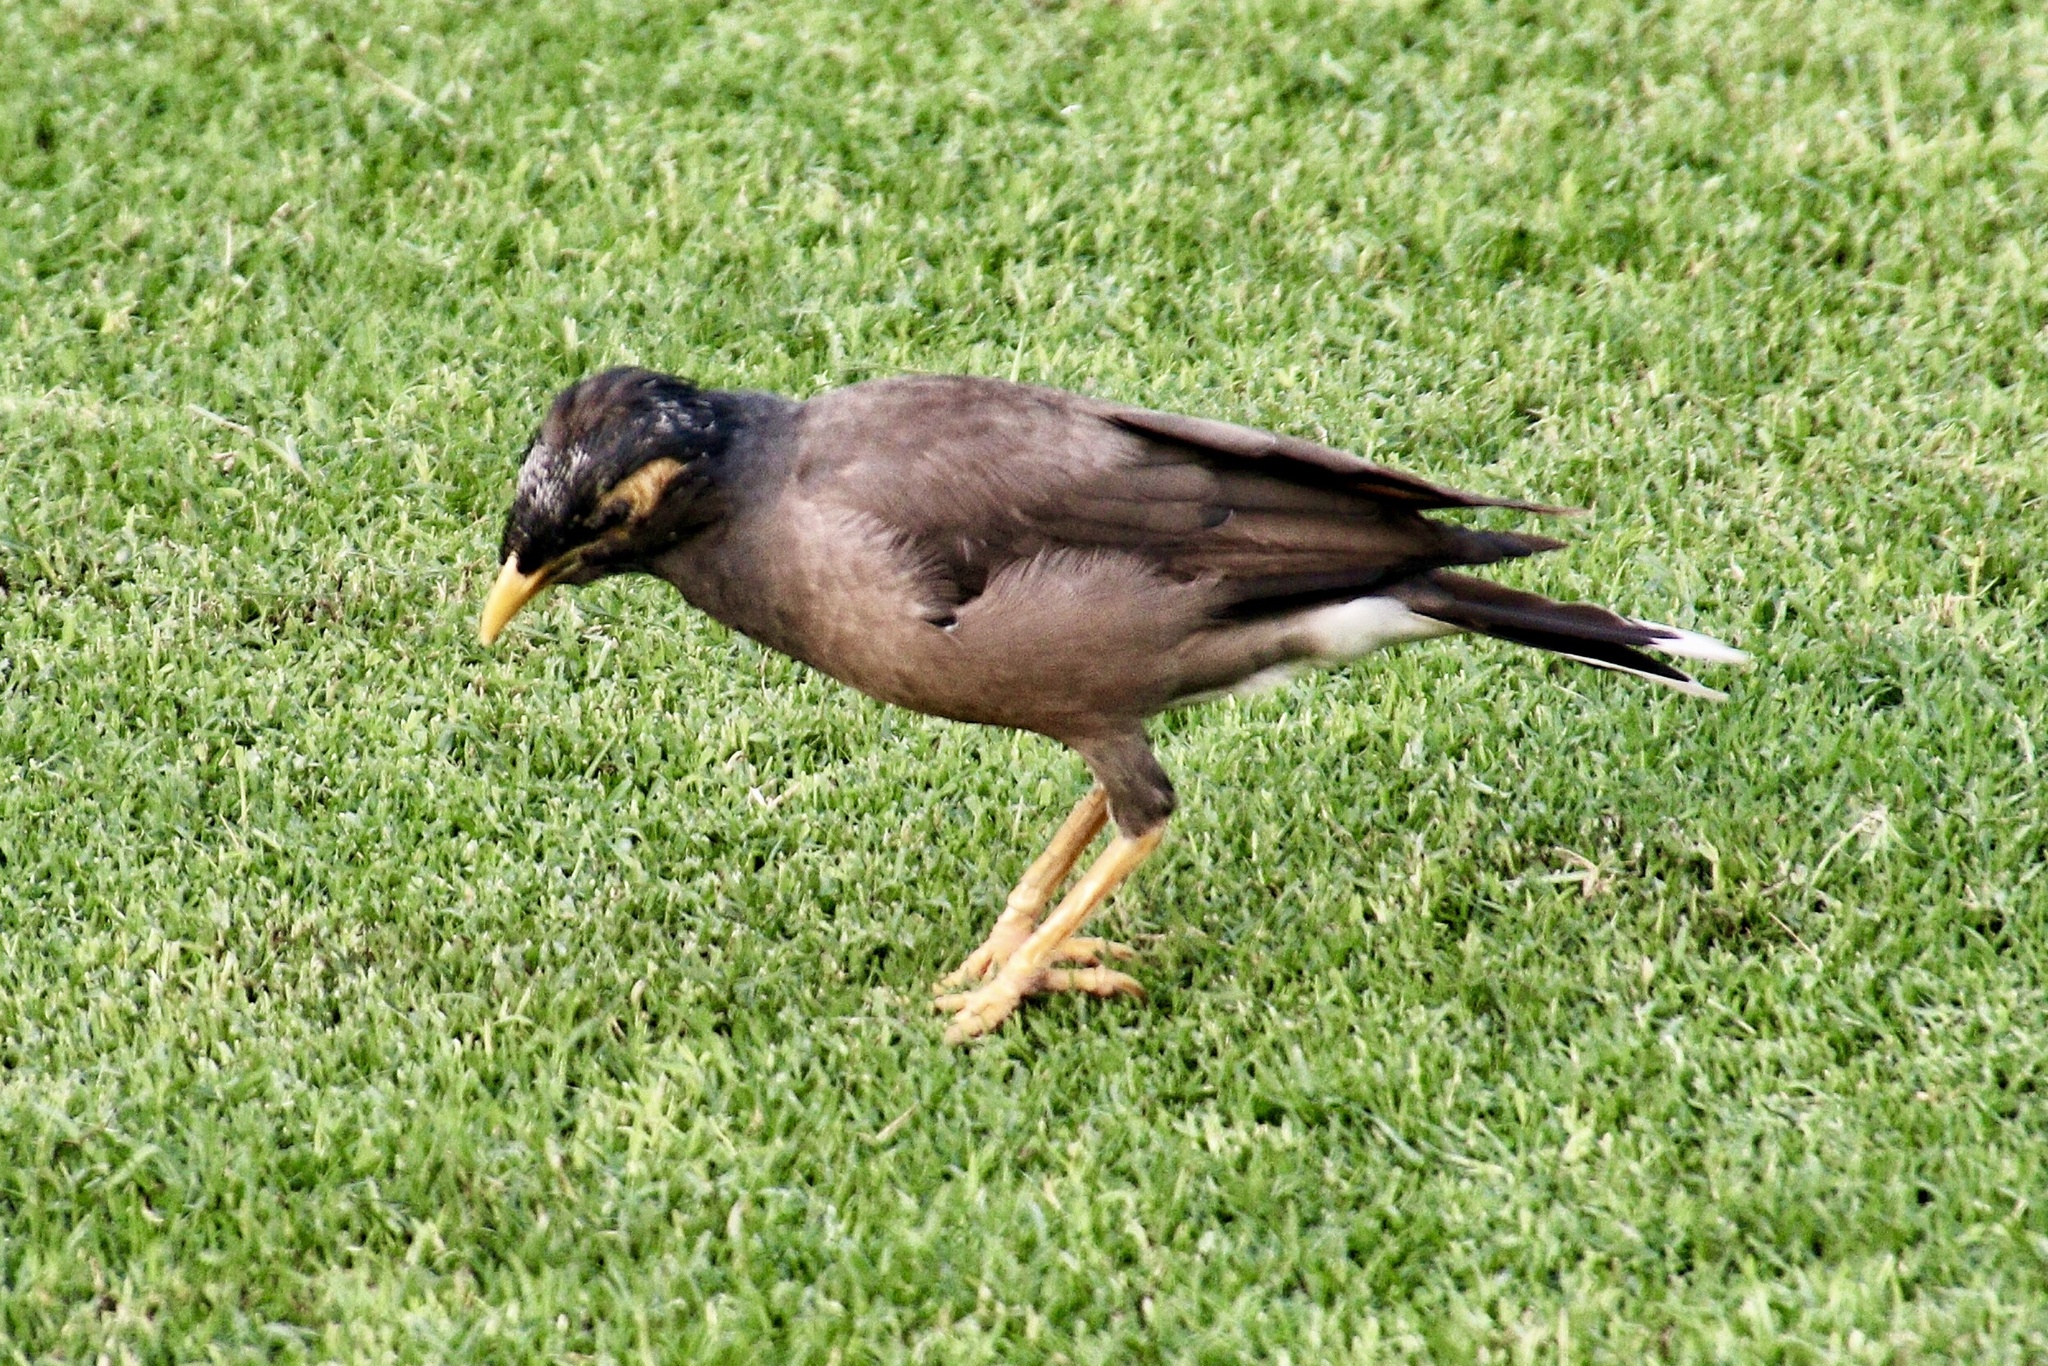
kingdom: Animalia
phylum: Chordata
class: Aves
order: Passeriformes
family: Sturnidae
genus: Acridotheres
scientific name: Acridotheres tristis
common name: Common myna
